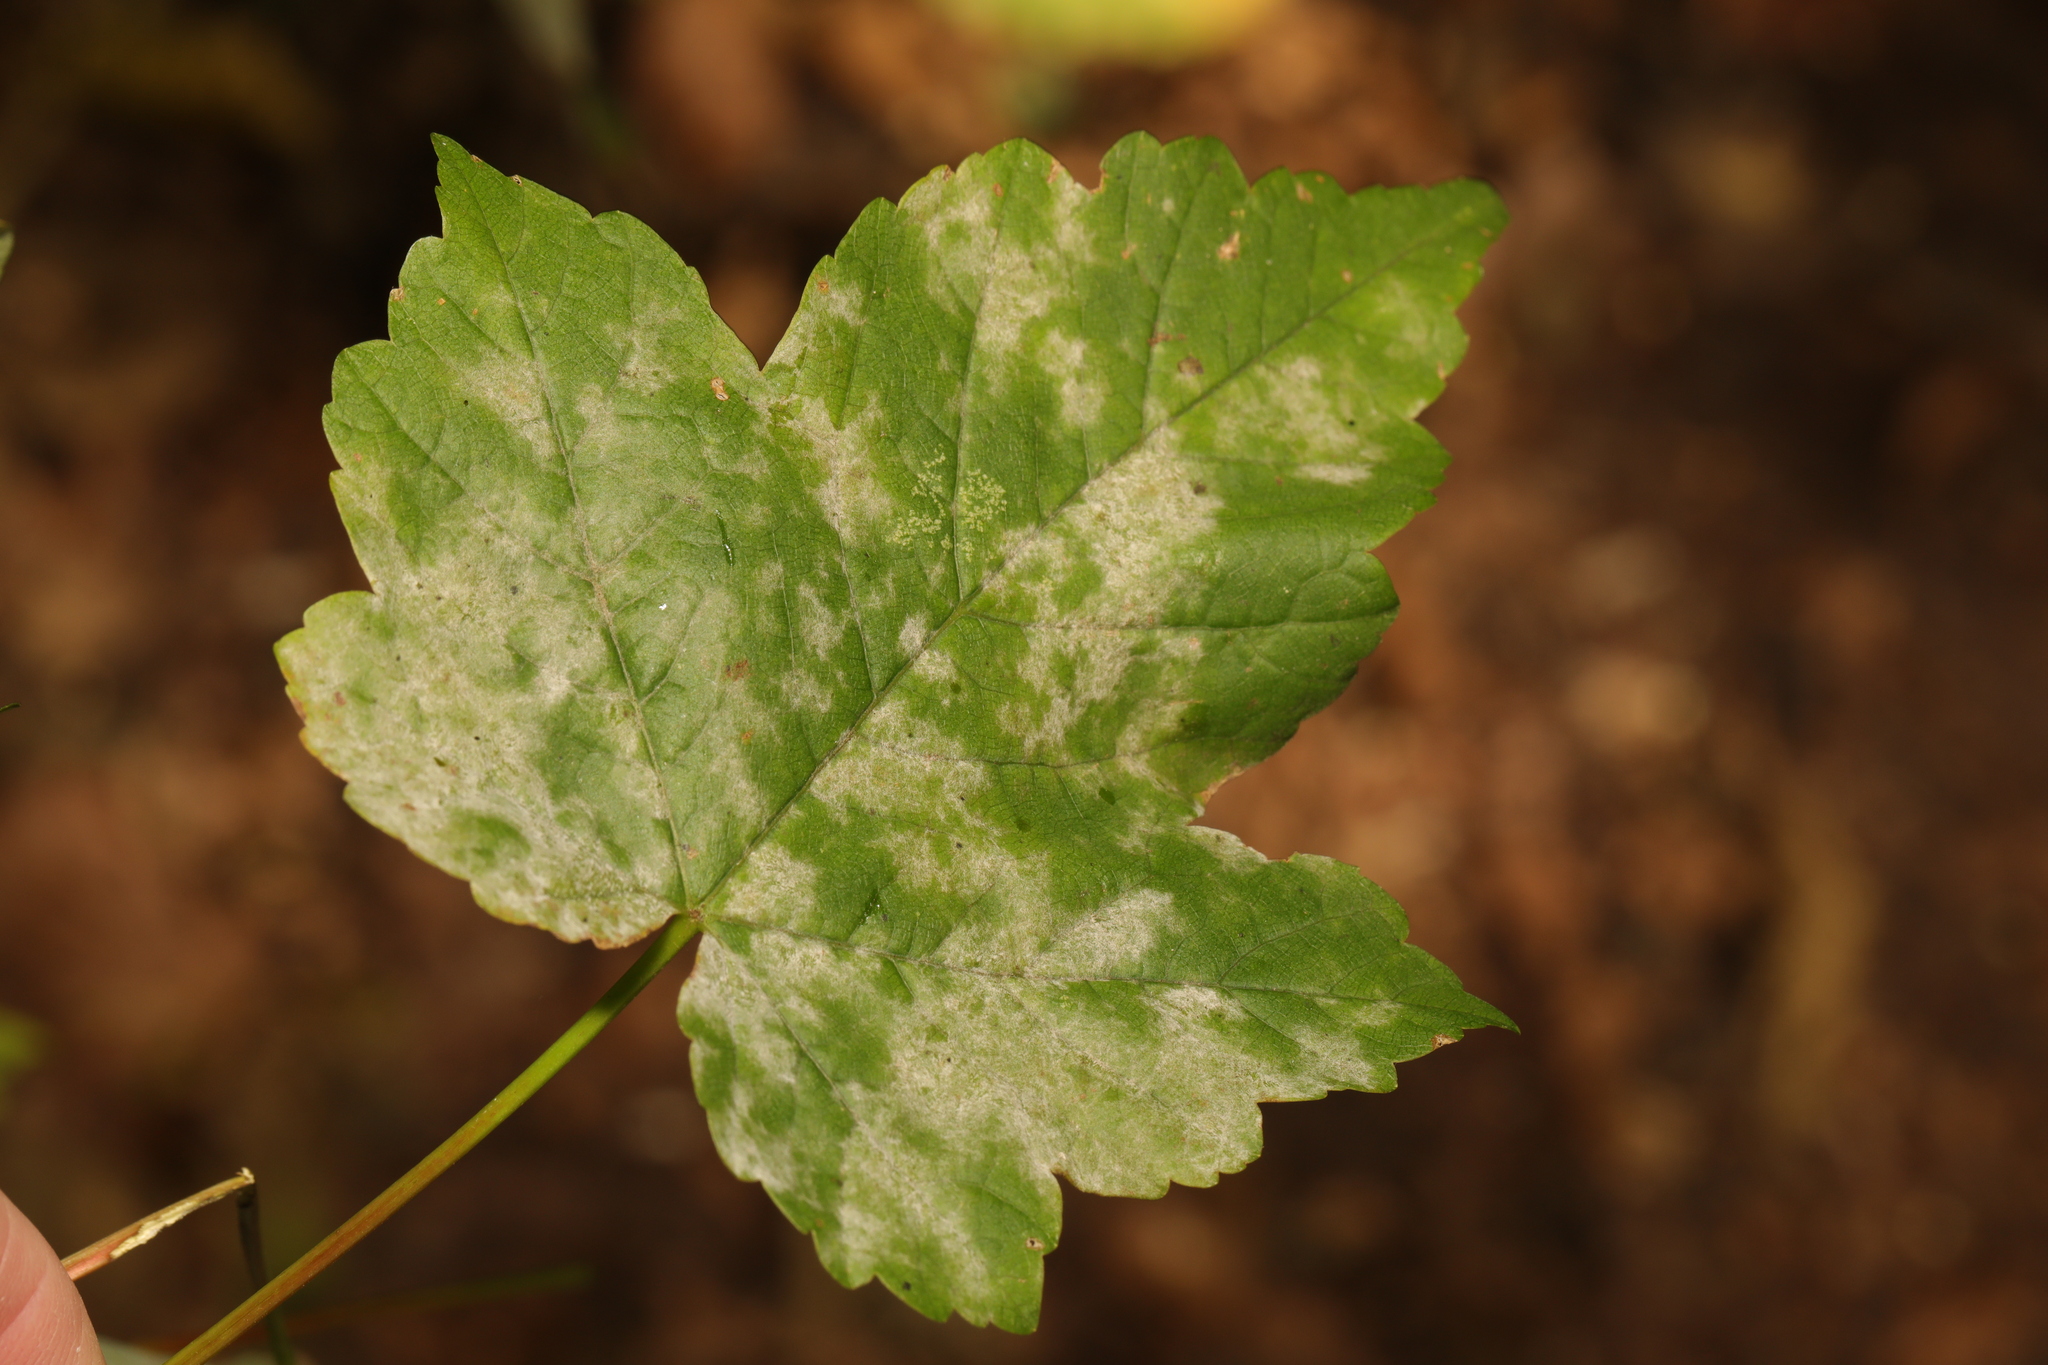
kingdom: Plantae
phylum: Tracheophyta
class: Magnoliopsida
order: Sapindales
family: Sapindaceae
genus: Acer
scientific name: Acer pseudoplatanus
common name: Sycamore
